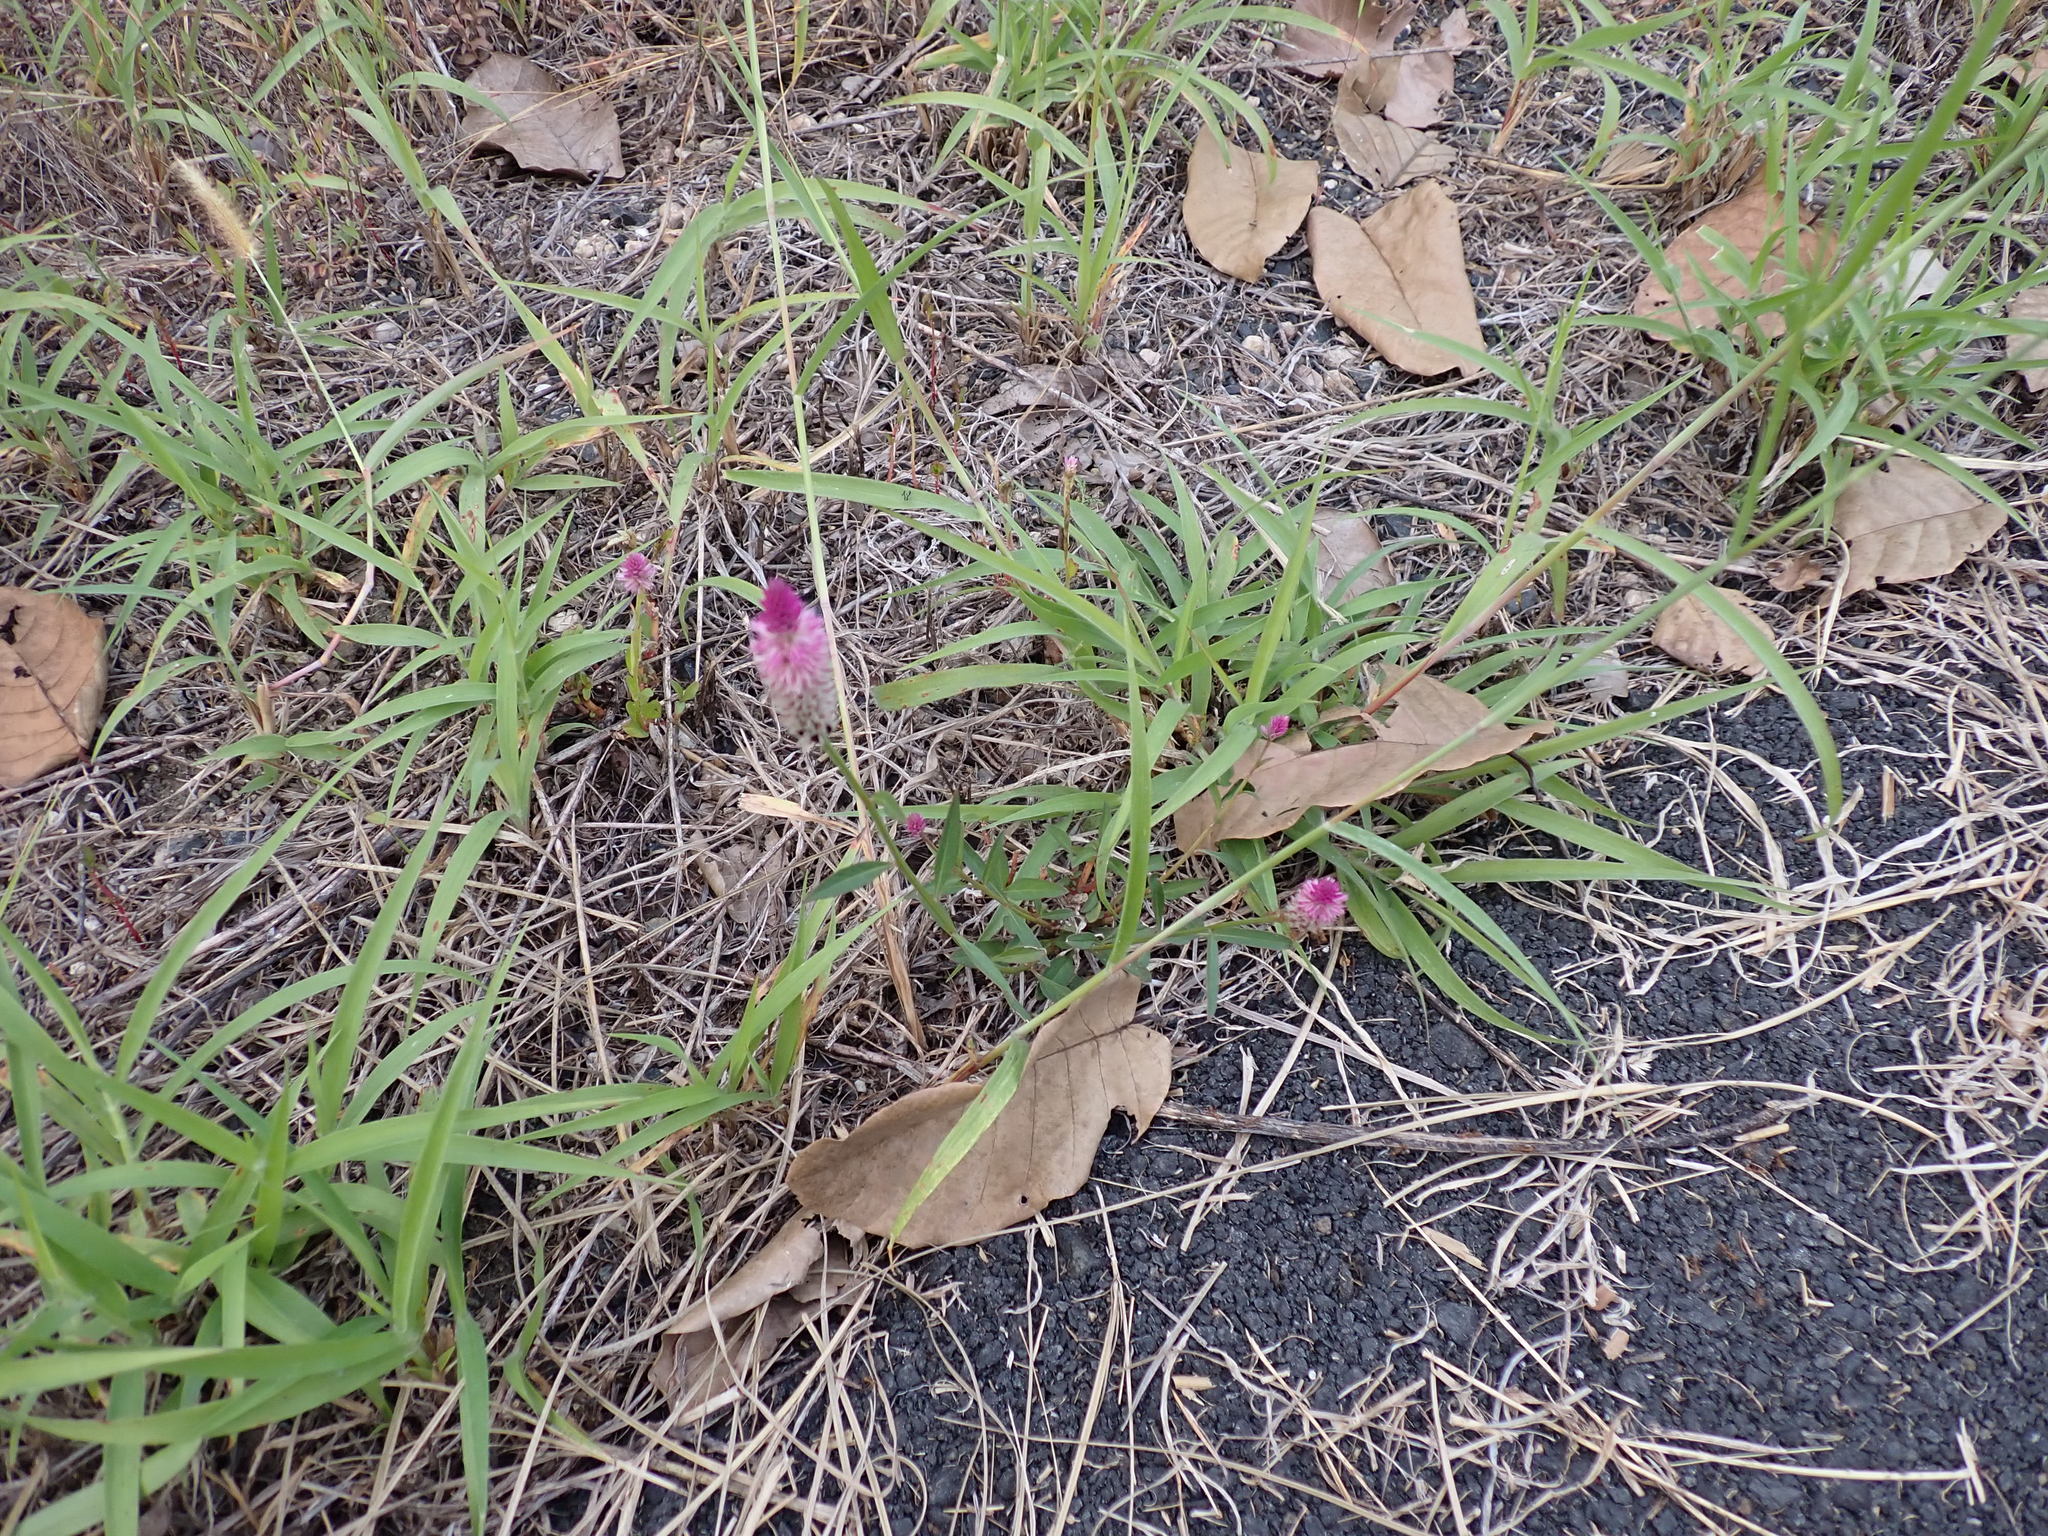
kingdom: Plantae
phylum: Tracheophyta
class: Magnoliopsida
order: Caryophyllales
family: Amaranthaceae
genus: Celosia
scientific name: Celosia argentea
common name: Feather cockscomb
